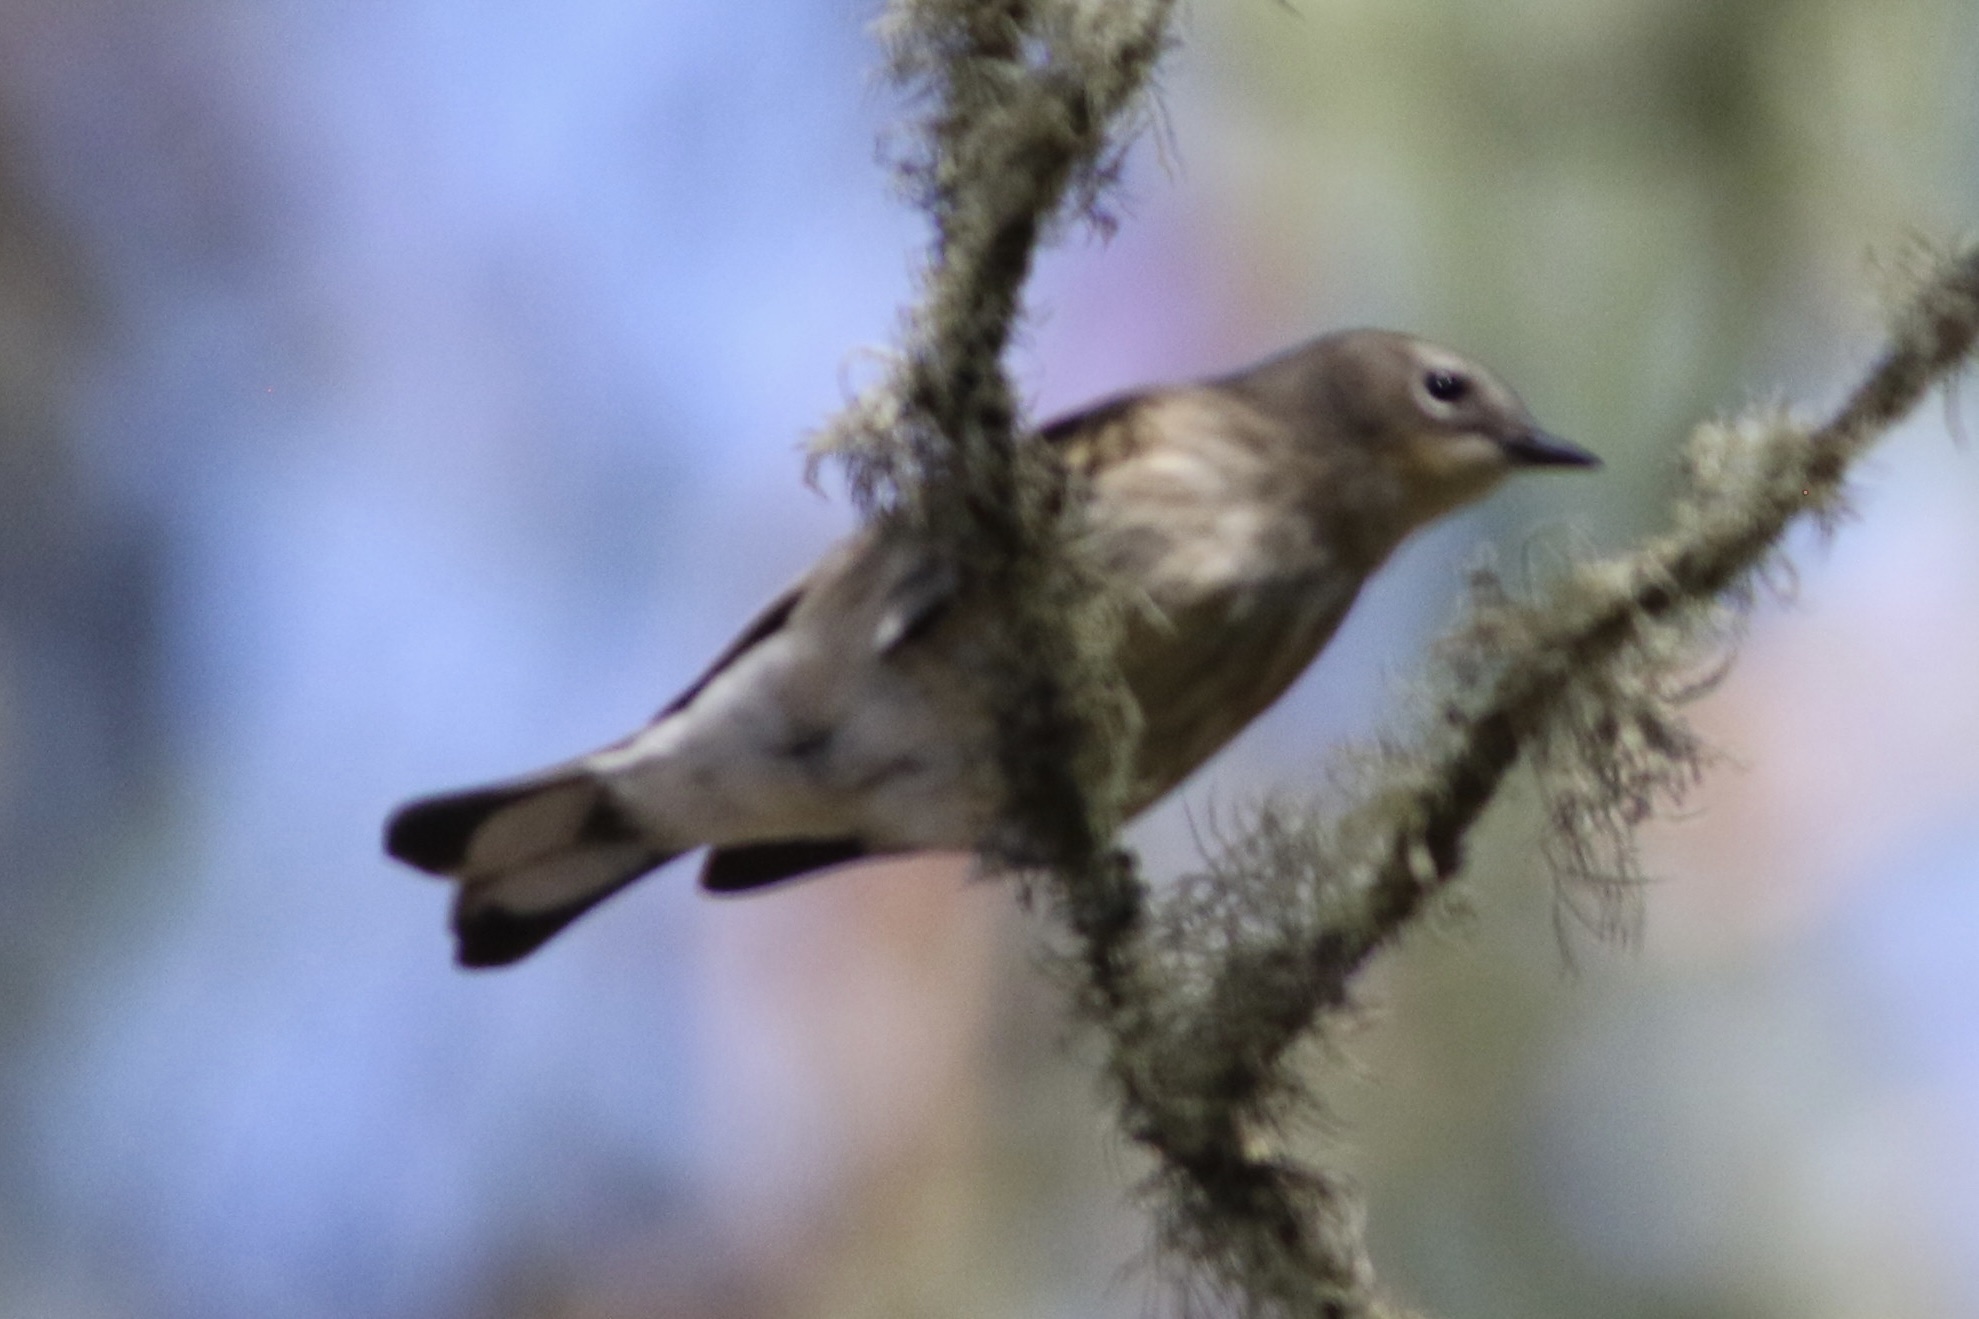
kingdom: Animalia
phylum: Chordata
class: Aves
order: Passeriformes
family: Parulidae
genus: Setophaga
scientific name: Setophaga coronata
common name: Myrtle warbler
